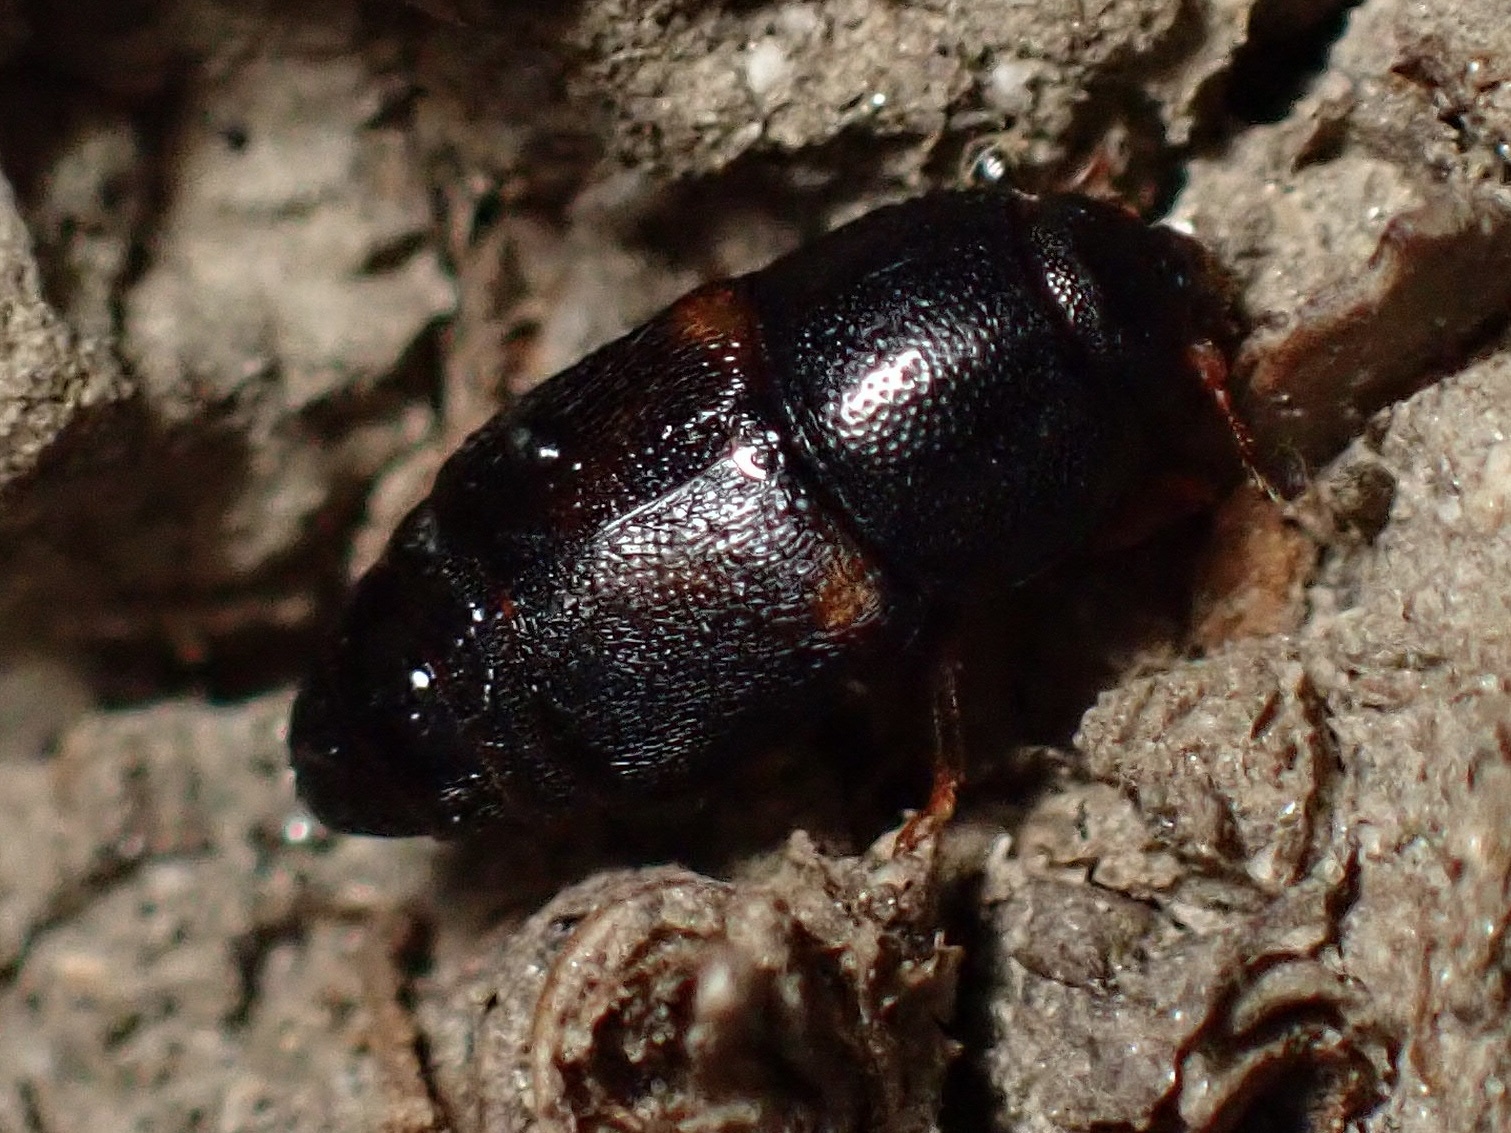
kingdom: Animalia
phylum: Arthropoda
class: Insecta
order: Coleoptera
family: Nitidulidae
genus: Urophorus
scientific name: Urophorus humeralis
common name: Sap beetle
